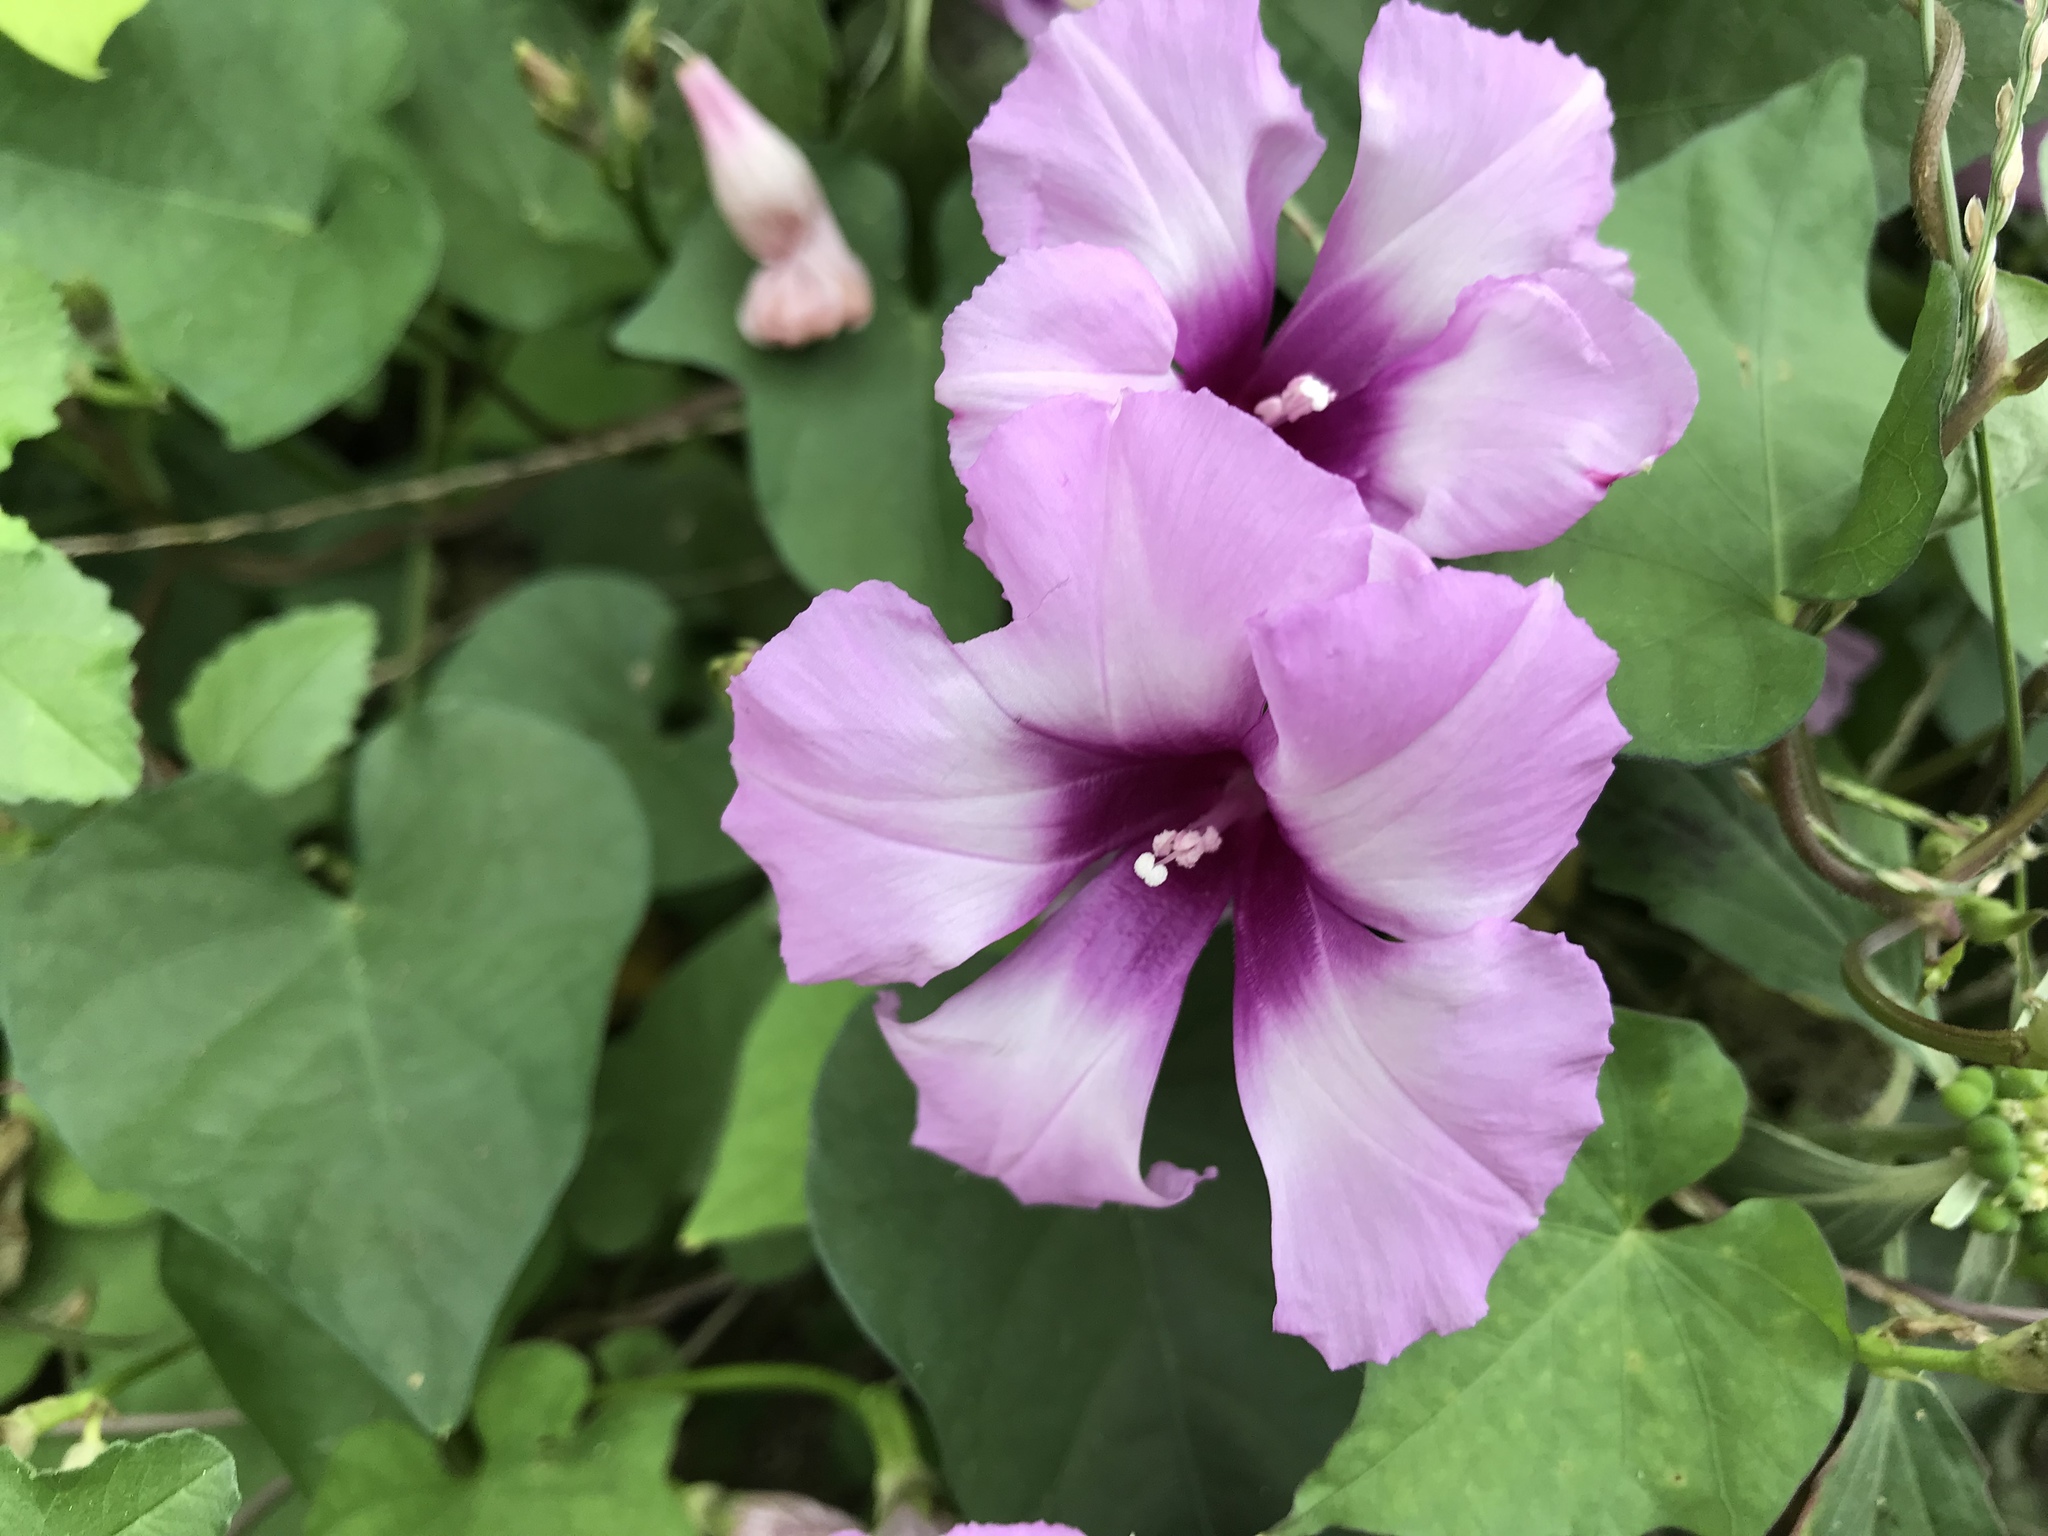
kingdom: Plantae
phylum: Tracheophyta
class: Magnoliopsida
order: Solanales
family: Convolvulaceae
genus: Ipomoea
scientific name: Ipomoea cordatotriloba
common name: Cotton morning glory
